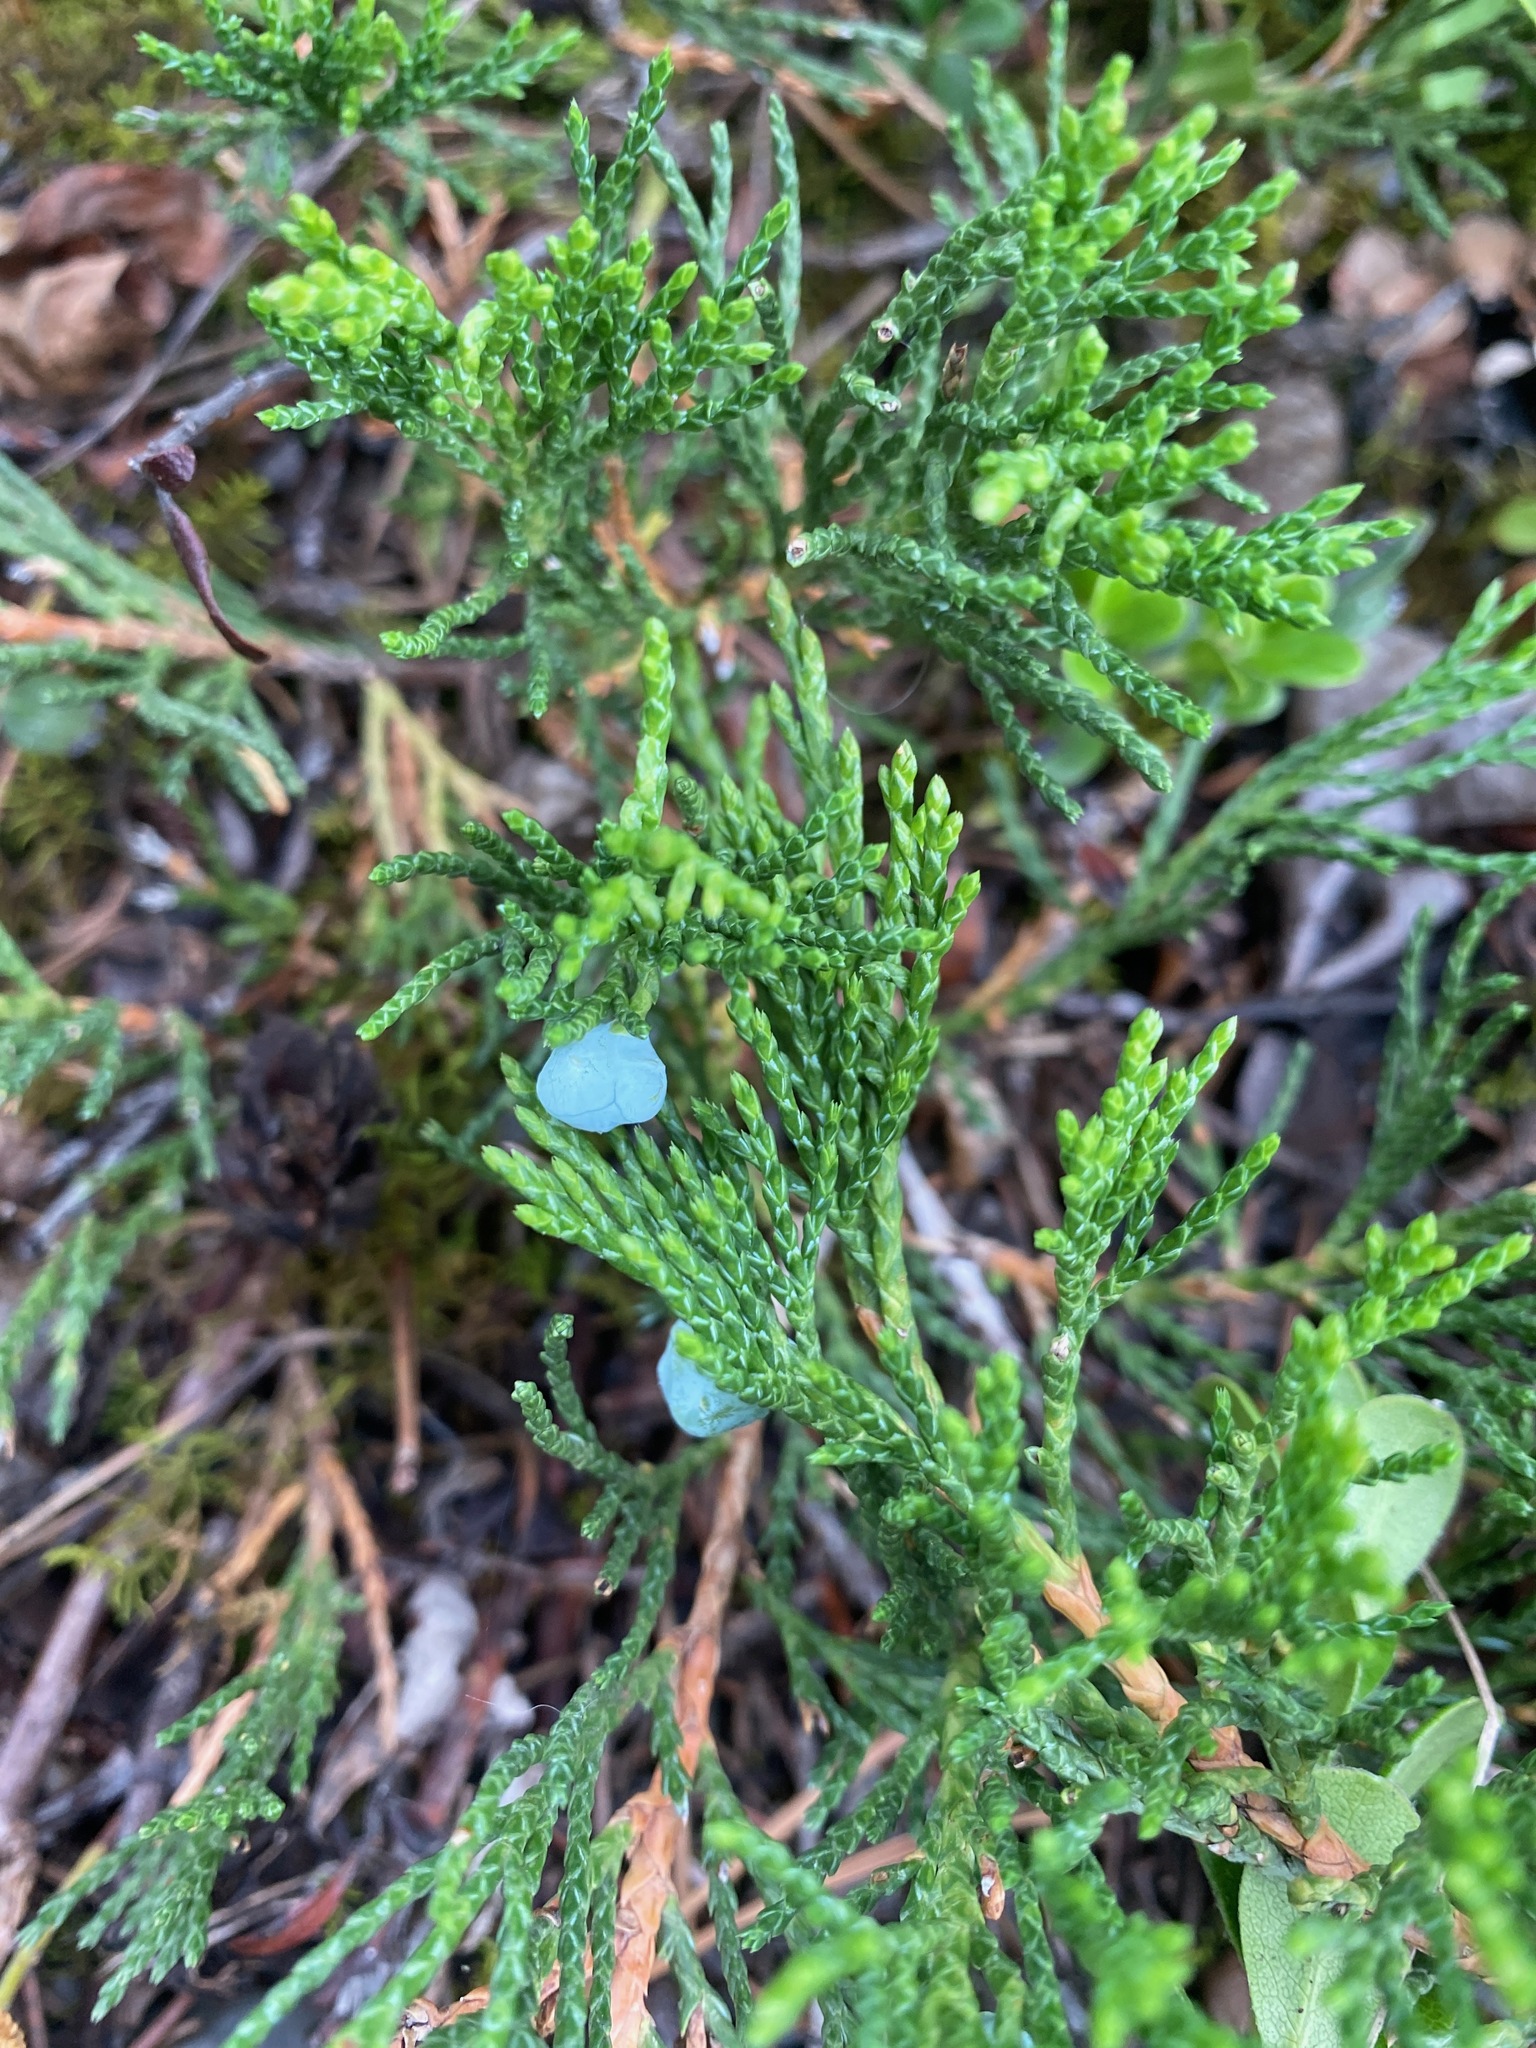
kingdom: Plantae
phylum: Tracheophyta
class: Pinopsida
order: Pinales
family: Cupressaceae
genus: Juniperus
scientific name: Juniperus horizontalis
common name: Creeping juniper
